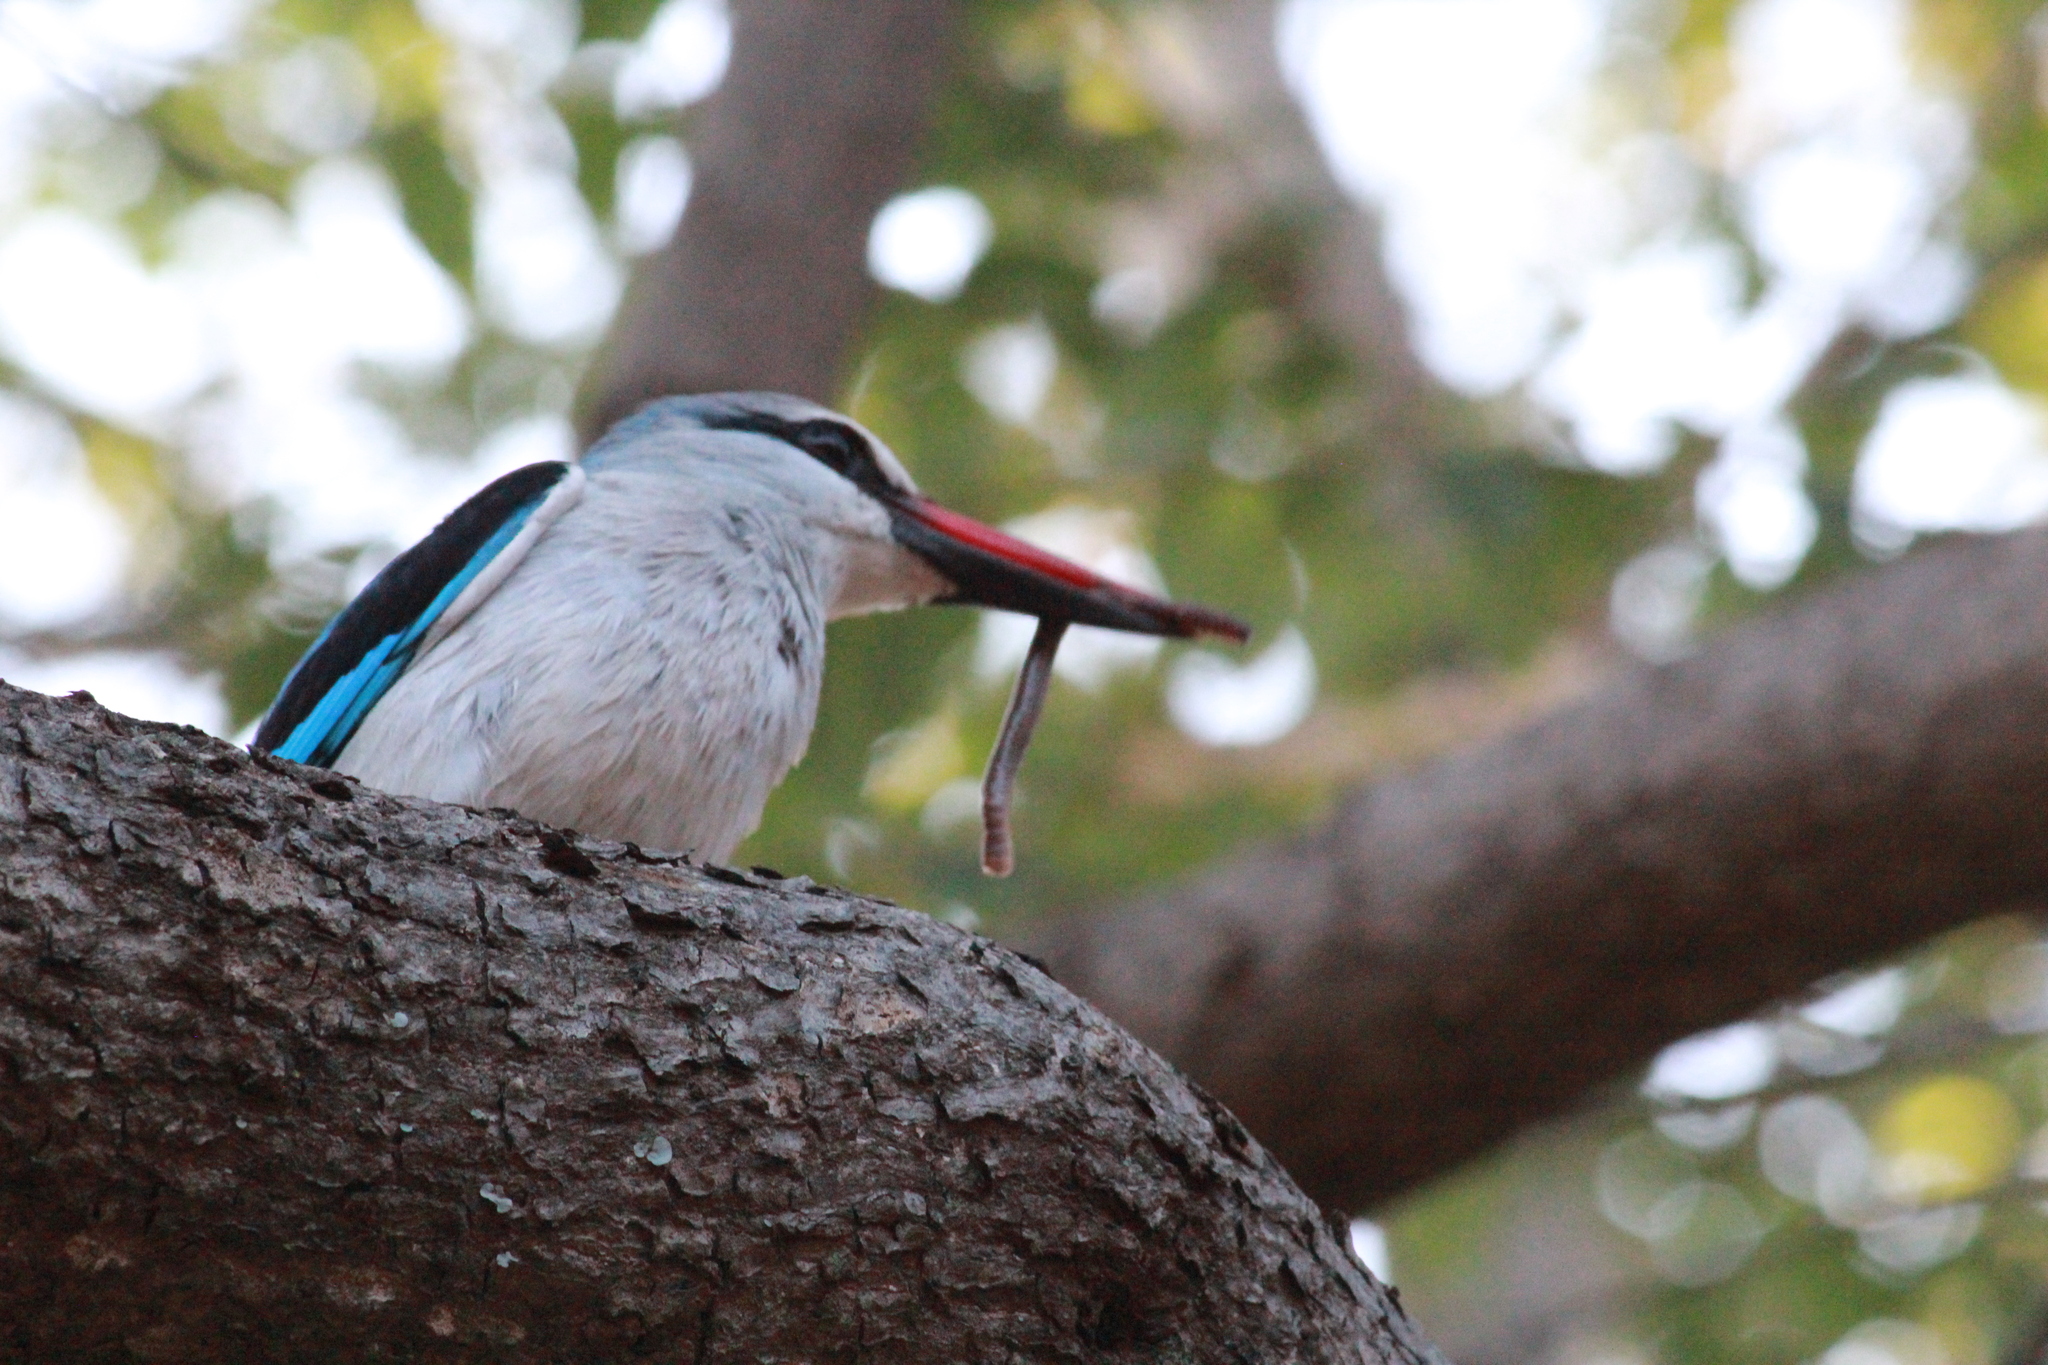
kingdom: Animalia
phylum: Chordata
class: Aves
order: Coraciiformes
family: Alcedinidae
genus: Halcyon
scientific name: Halcyon senegalensis
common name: Woodland kingfisher
